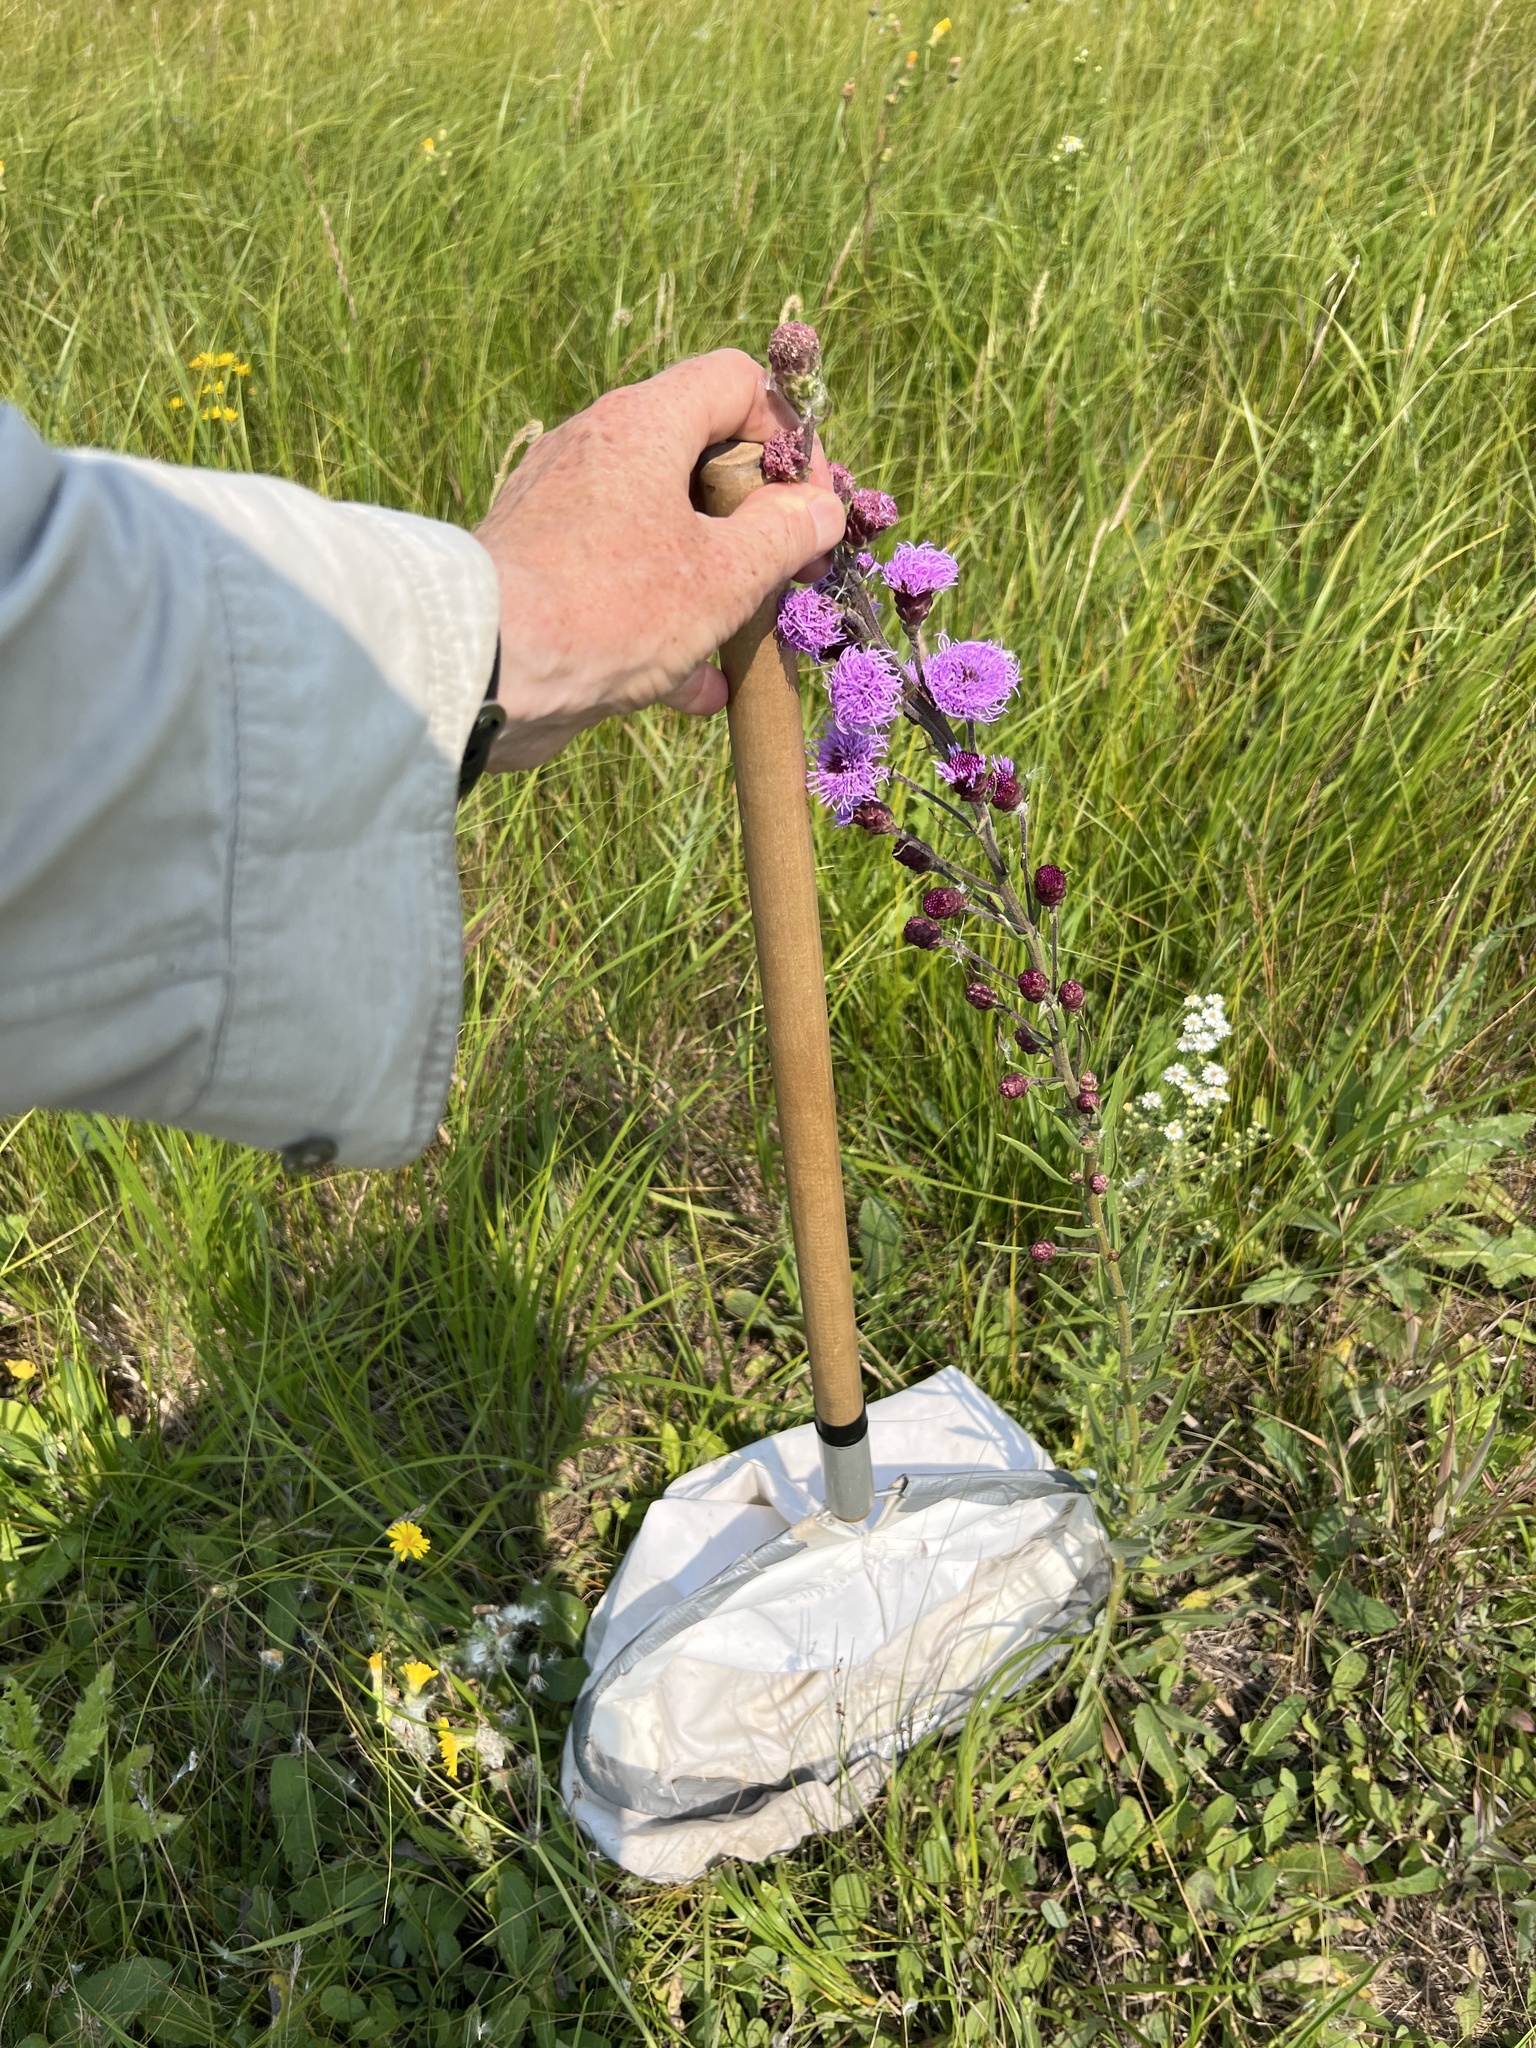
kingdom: Plantae
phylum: Tracheophyta
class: Magnoliopsida
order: Asterales
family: Asteraceae
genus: Liatris
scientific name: Liatris ligulistylis
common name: Northern plains gayfeather
